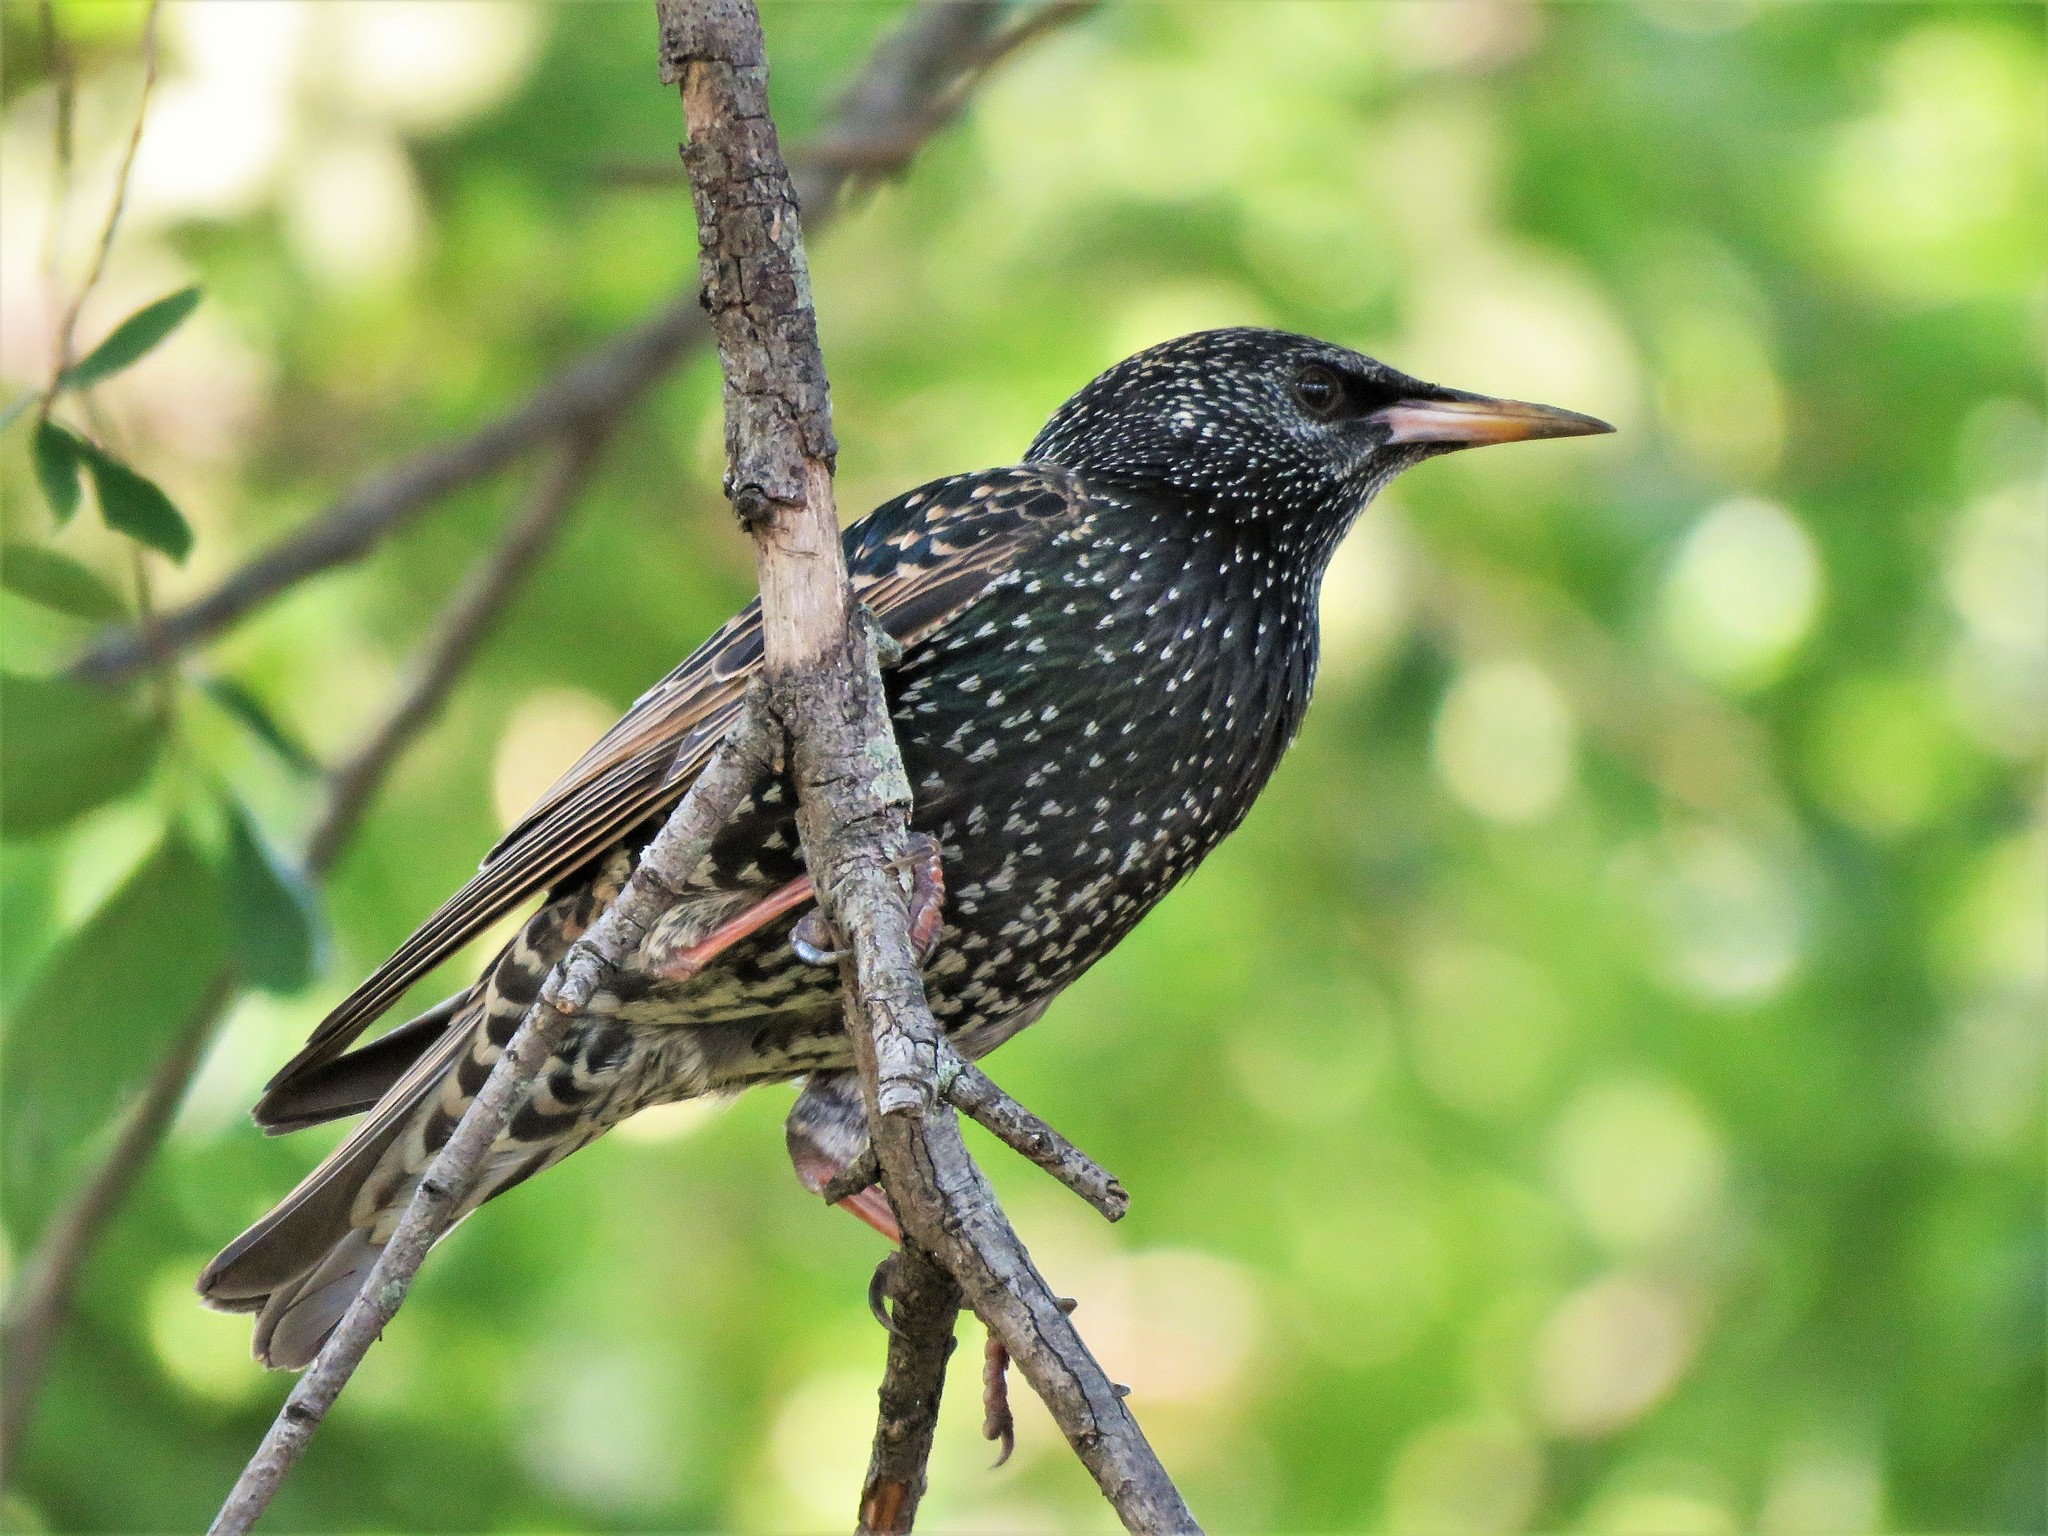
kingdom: Animalia
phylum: Chordata
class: Aves
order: Passeriformes
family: Sturnidae
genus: Sturnus
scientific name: Sturnus vulgaris
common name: Common starling
